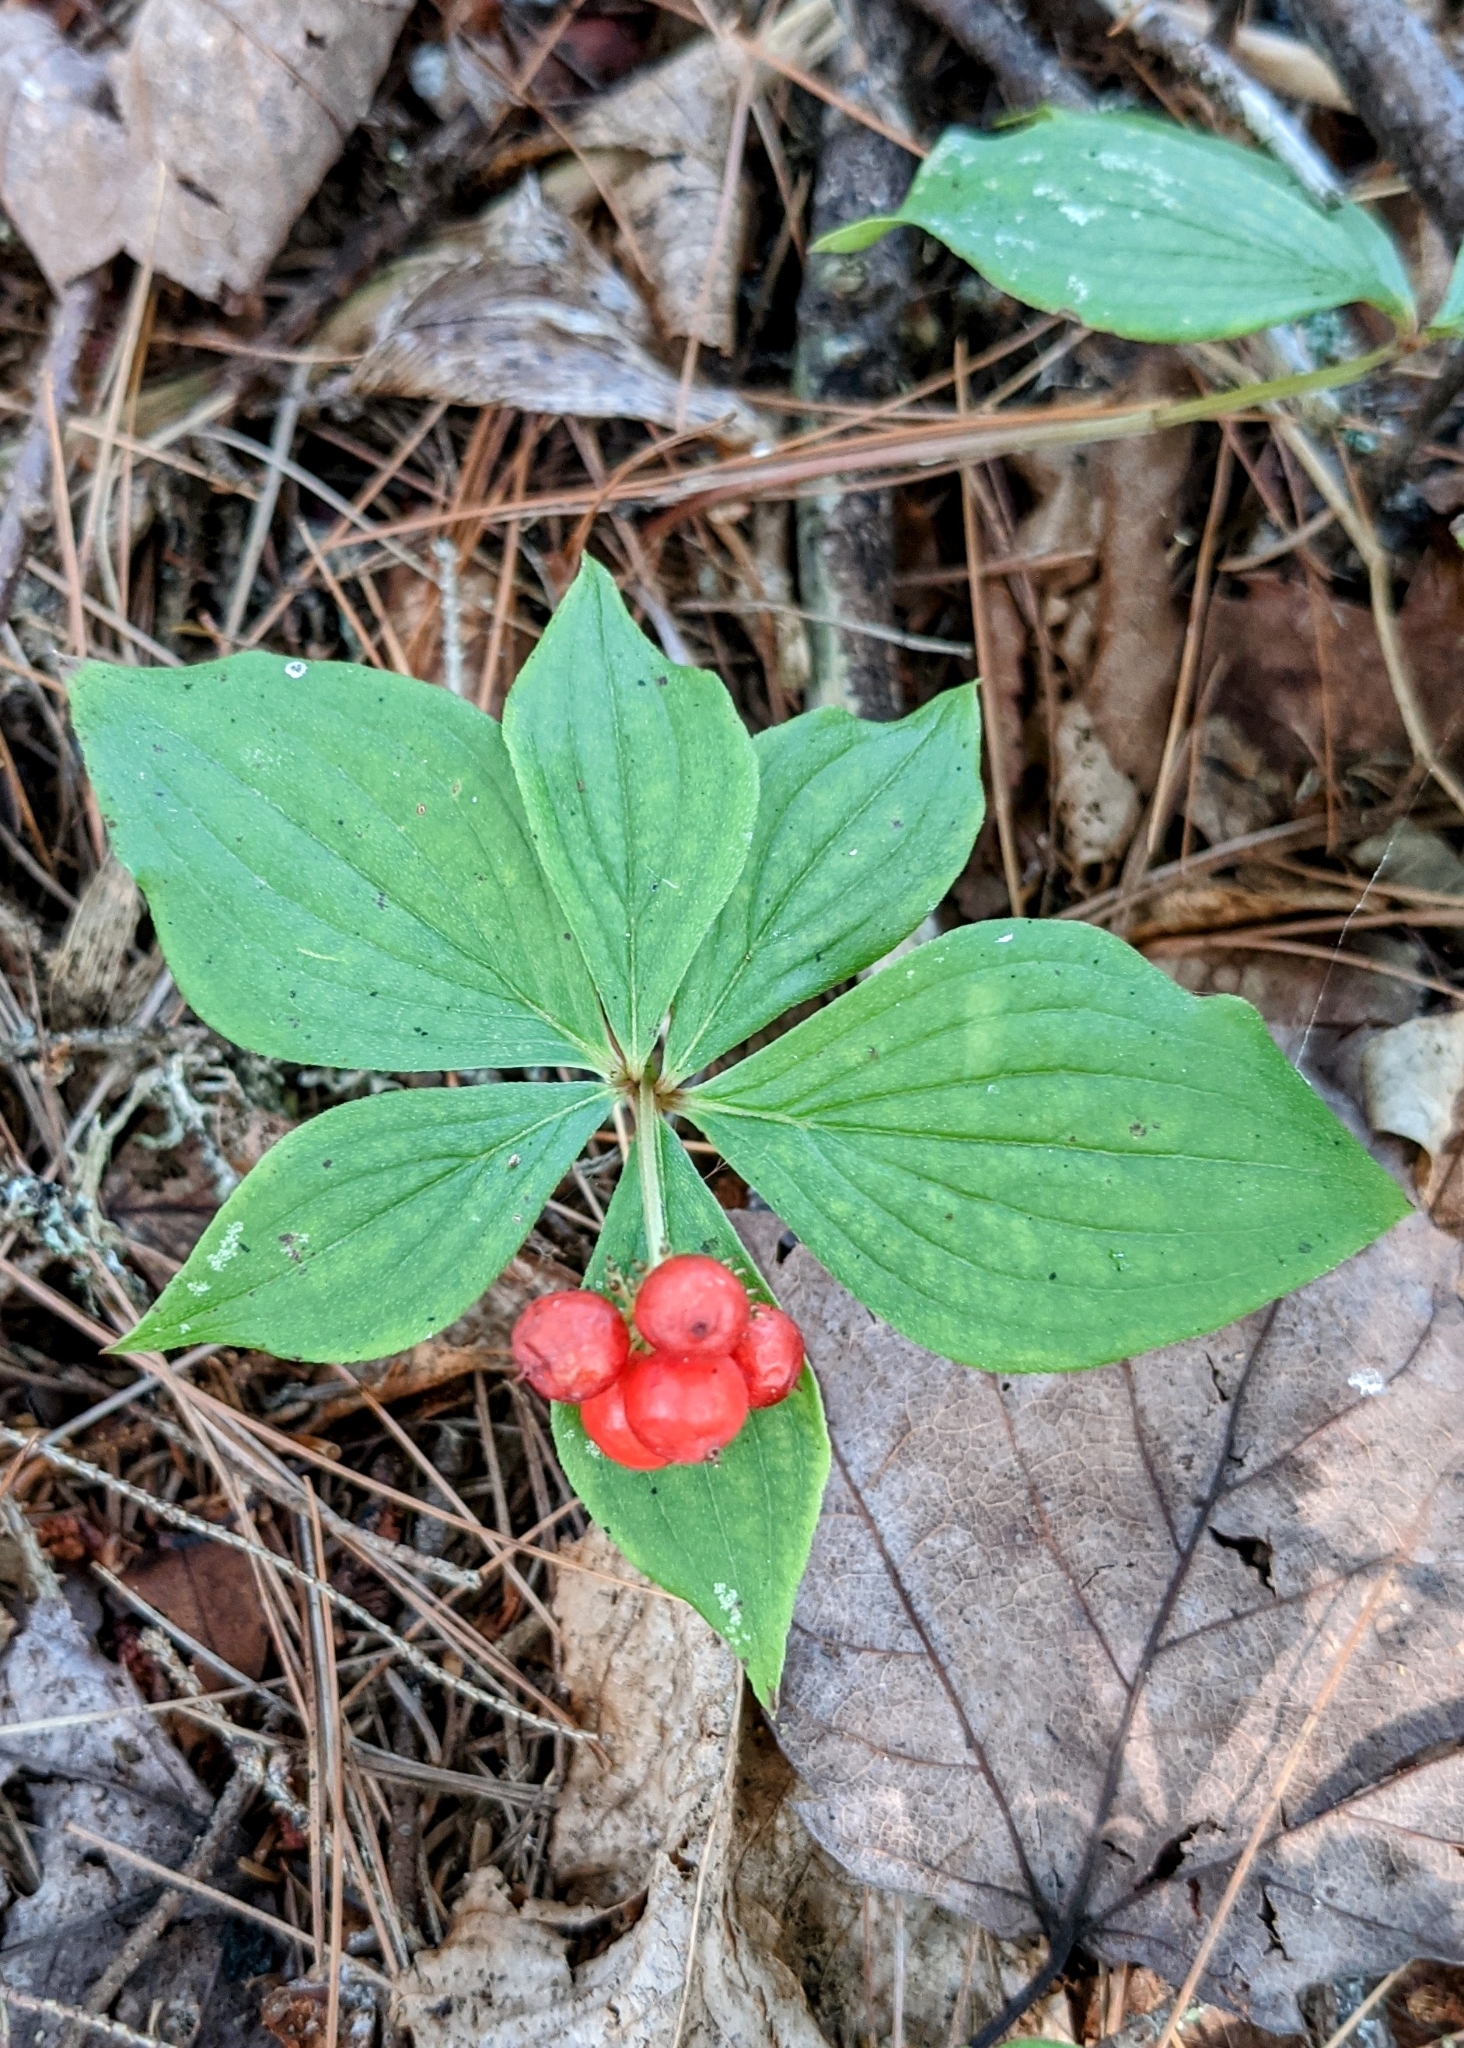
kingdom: Plantae
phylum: Tracheophyta
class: Magnoliopsida
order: Cornales
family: Cornaceae
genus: Cornus
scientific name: Cornus canadensis
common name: Creeping dogwood
